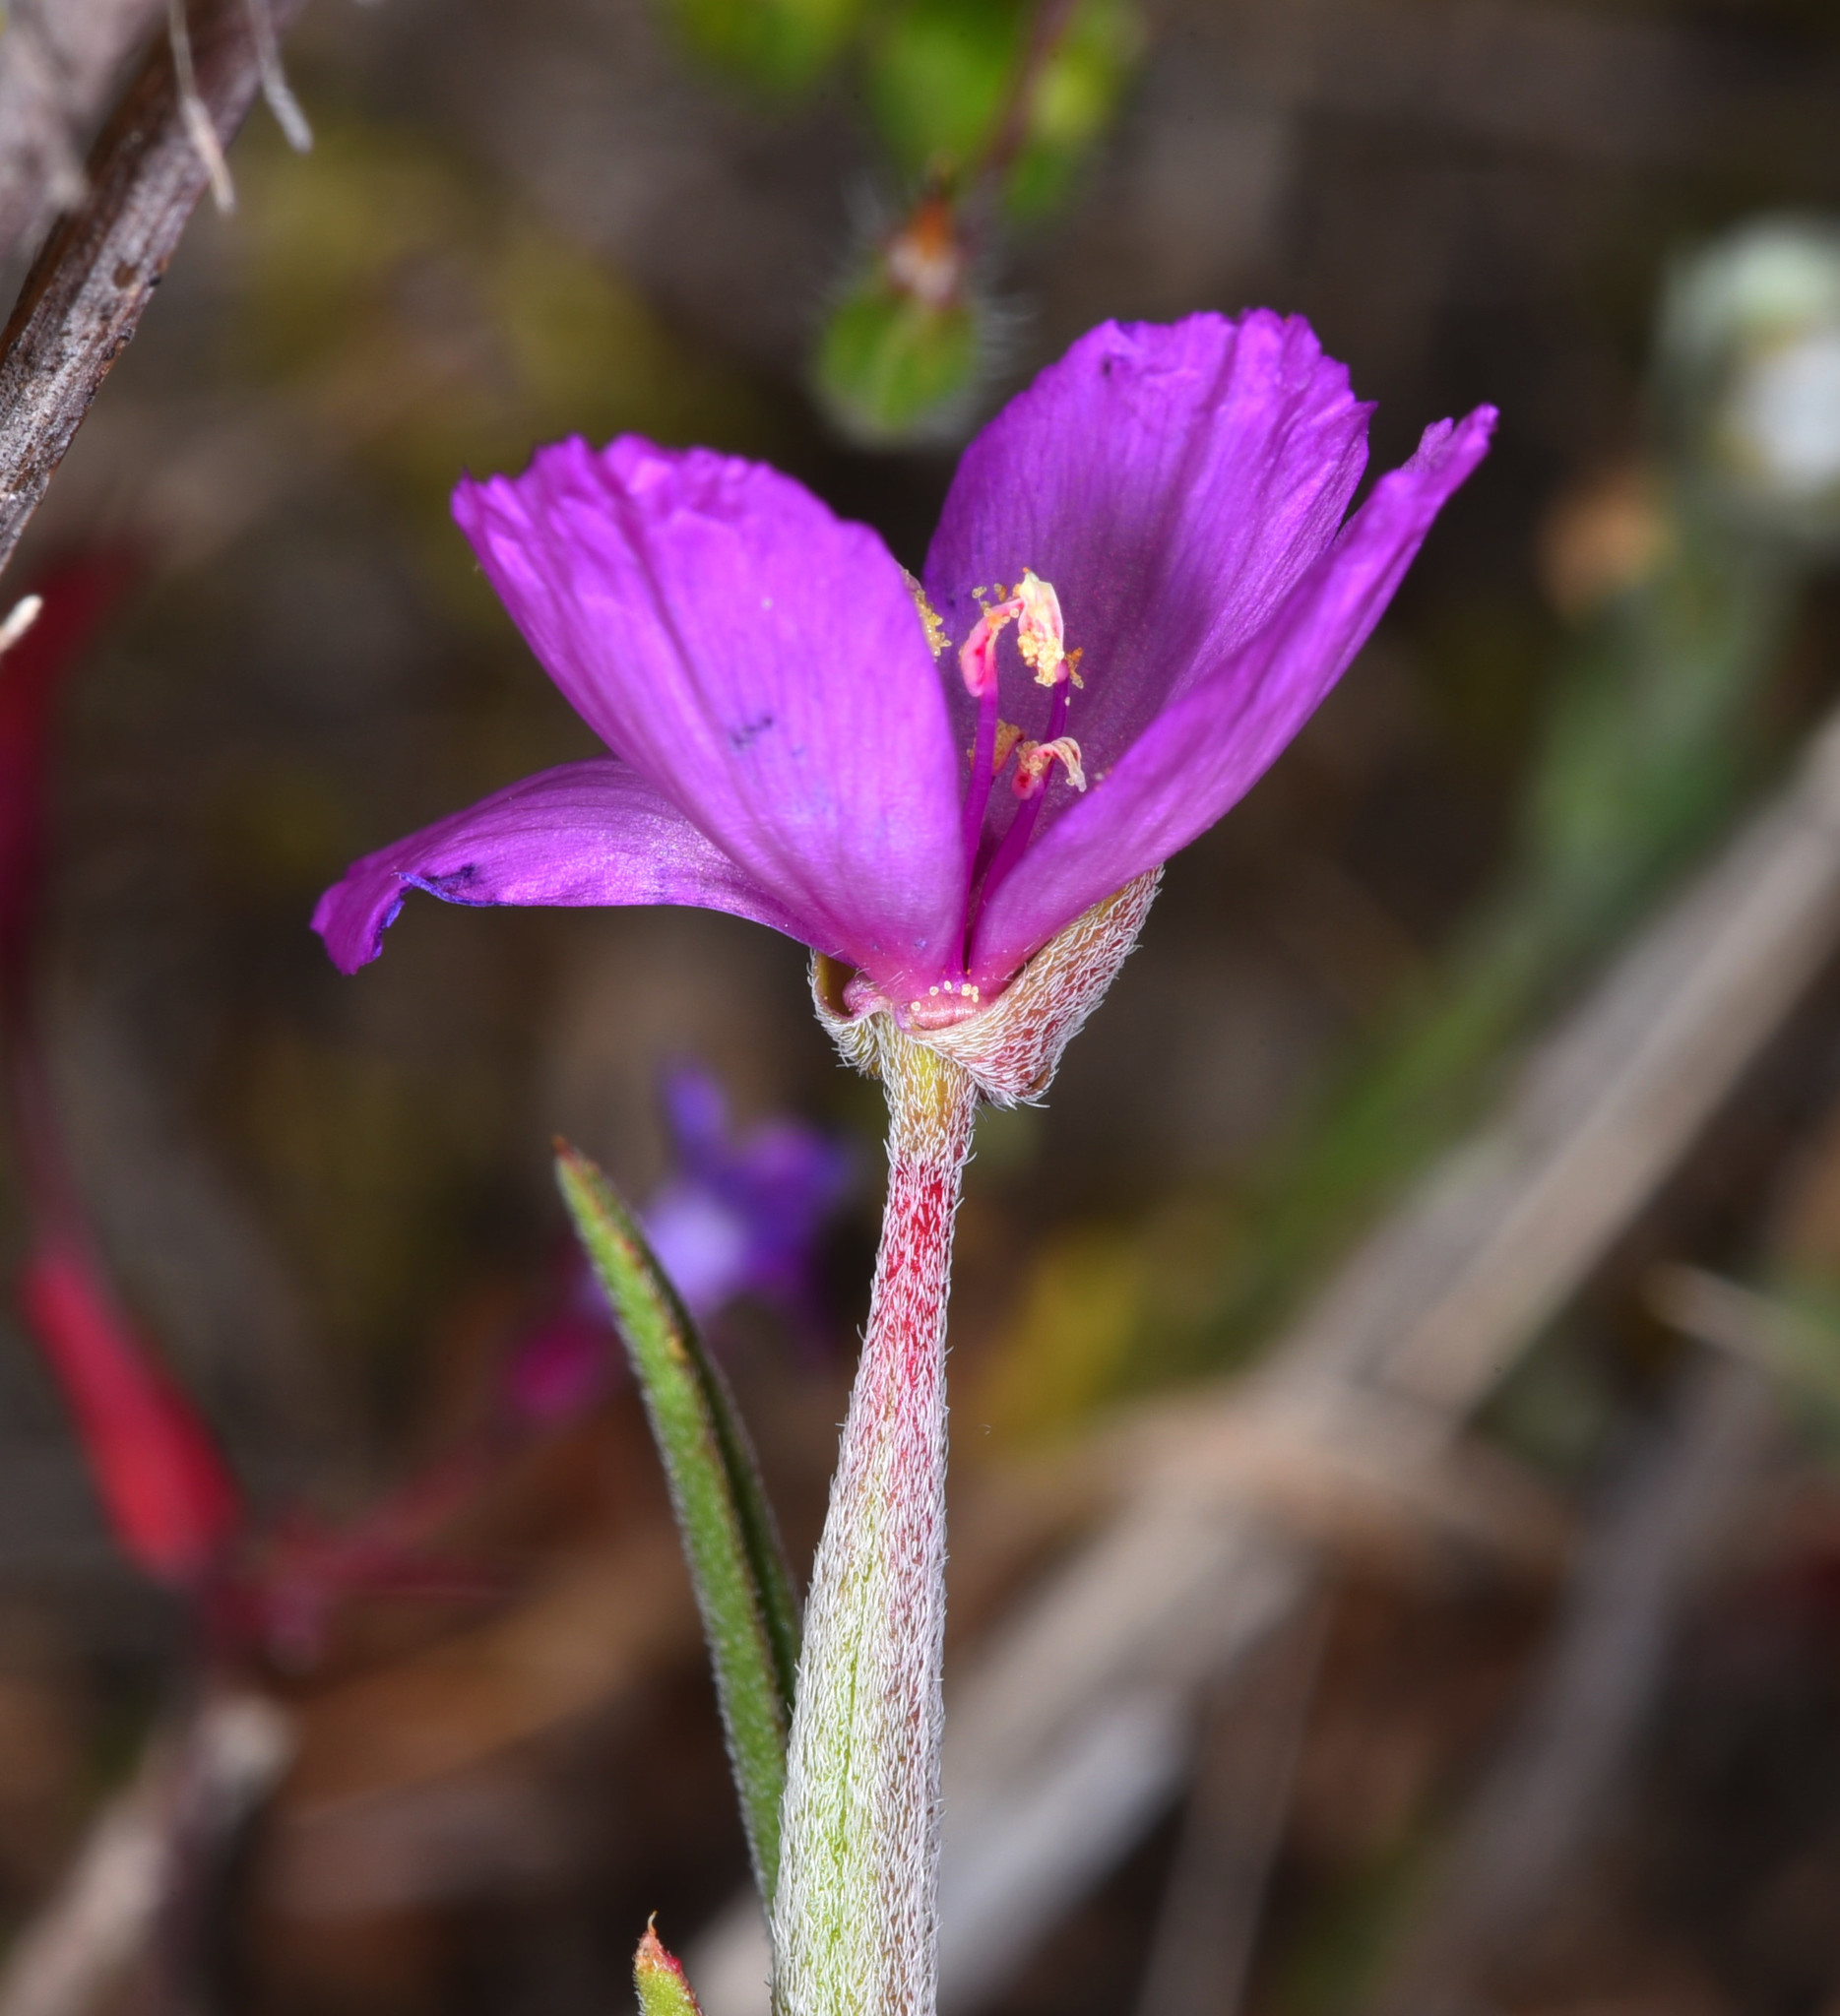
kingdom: Plantae
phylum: Tracheophyta
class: Magnoliopsida
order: Myrtales
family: Onagraceae
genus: Clarkia
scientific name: Clarkia affinis
